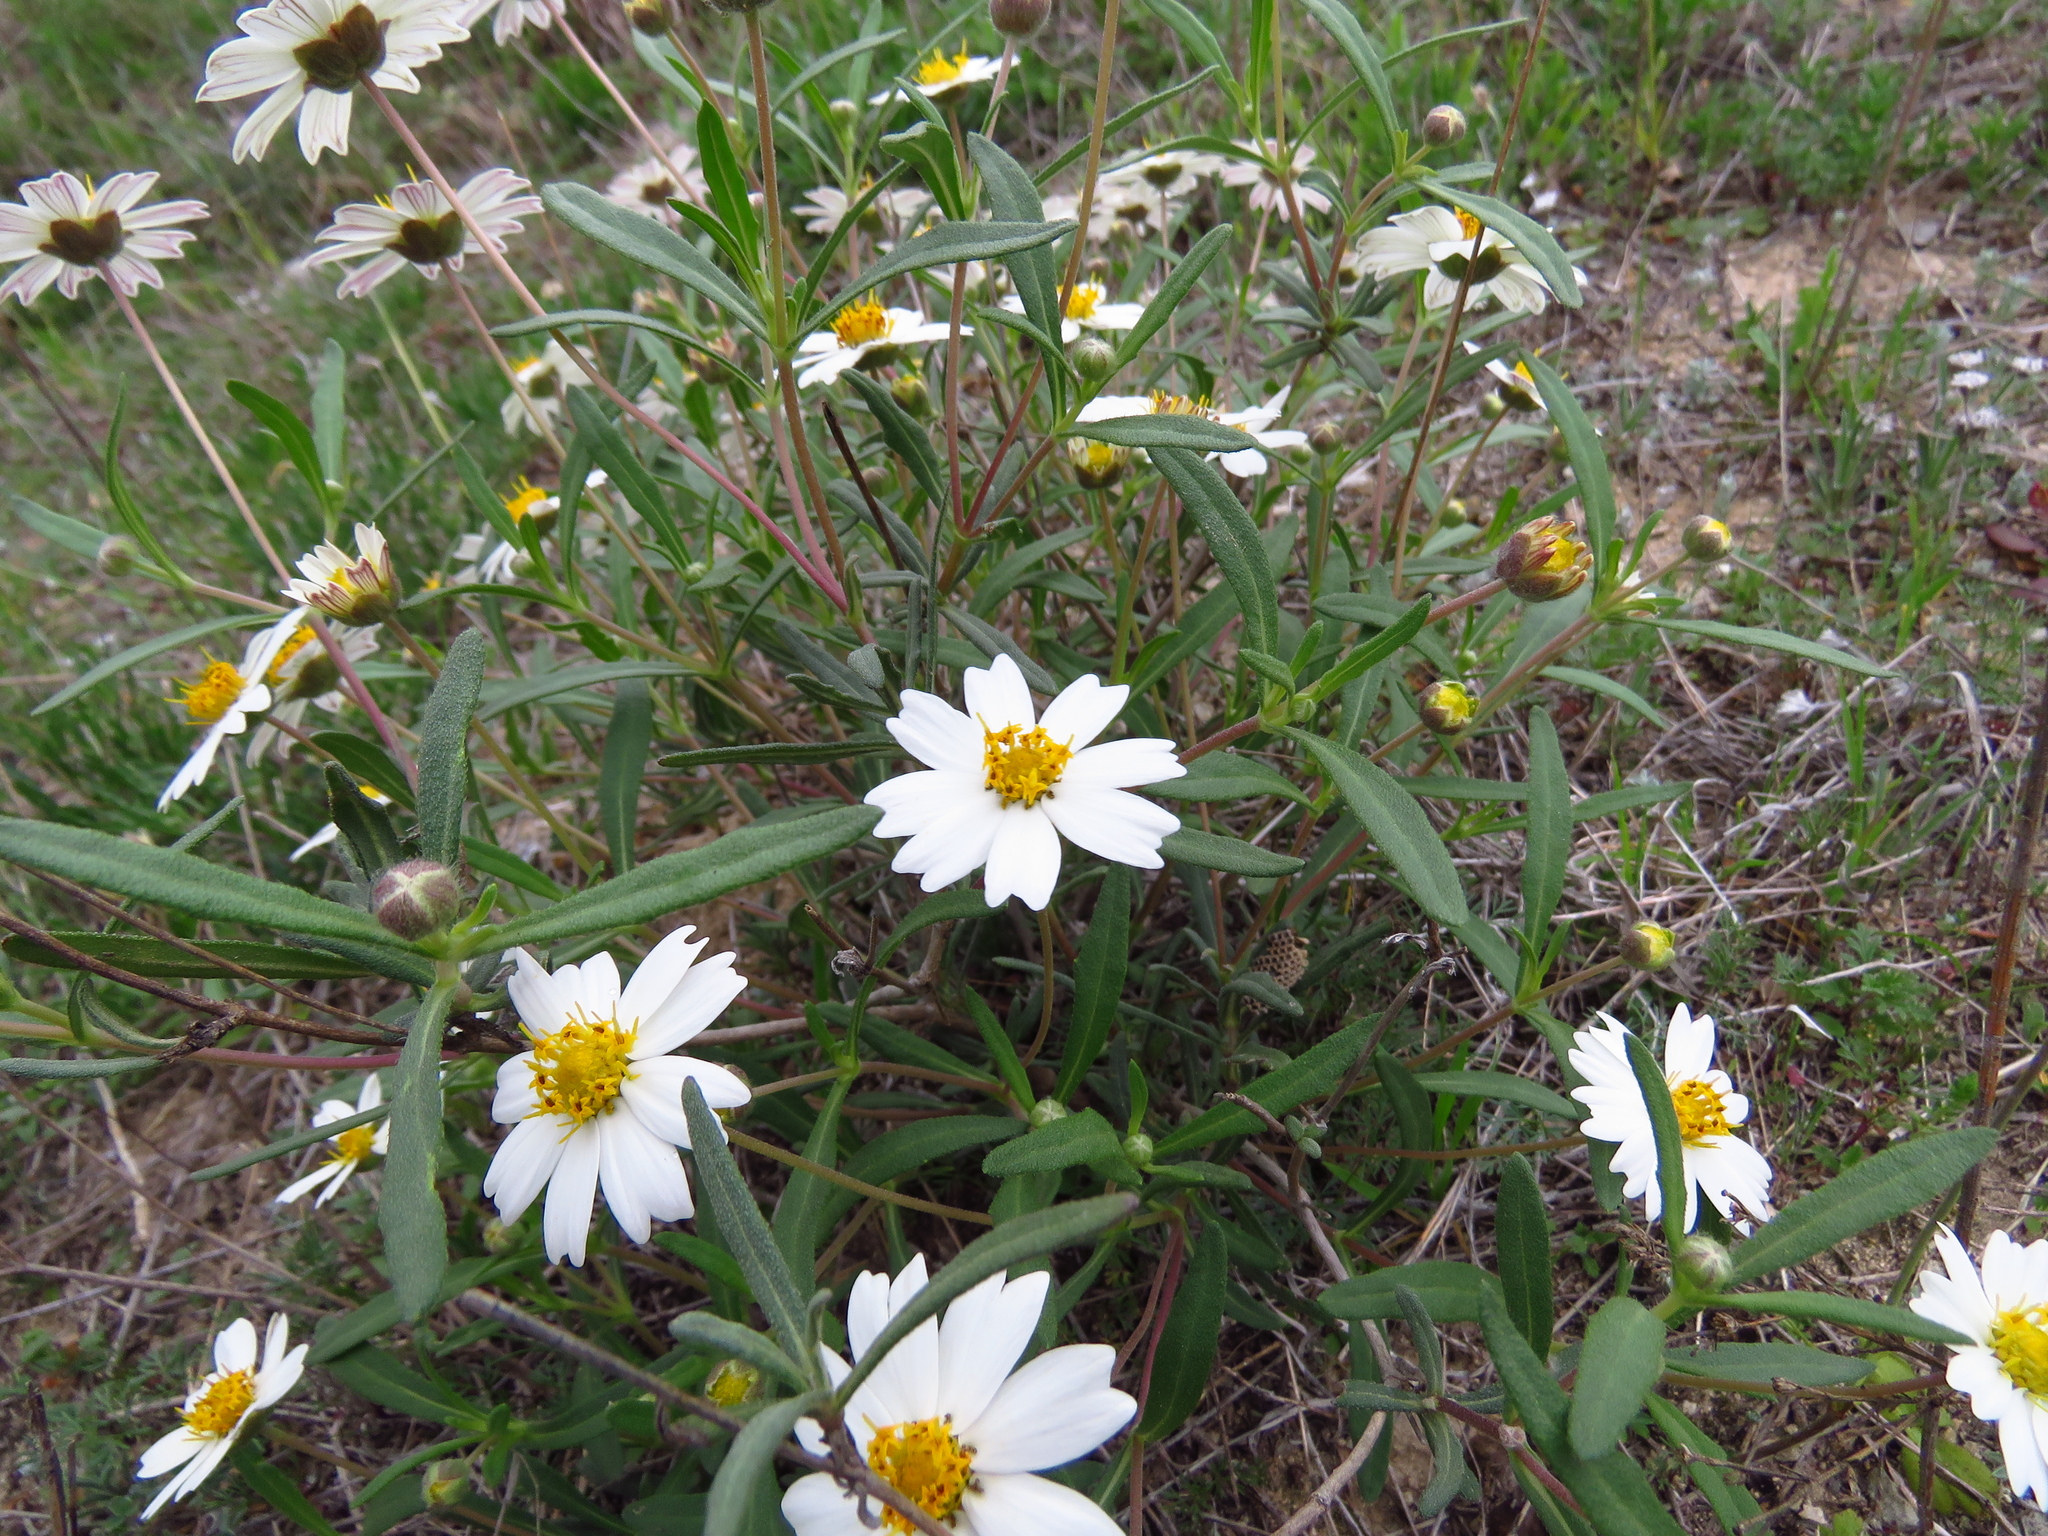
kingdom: Plantae
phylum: Tracheophyta
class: Magnoliopsida
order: Asterales
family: Asteraceae
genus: Melampodium
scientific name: Melampodium leucanthum
